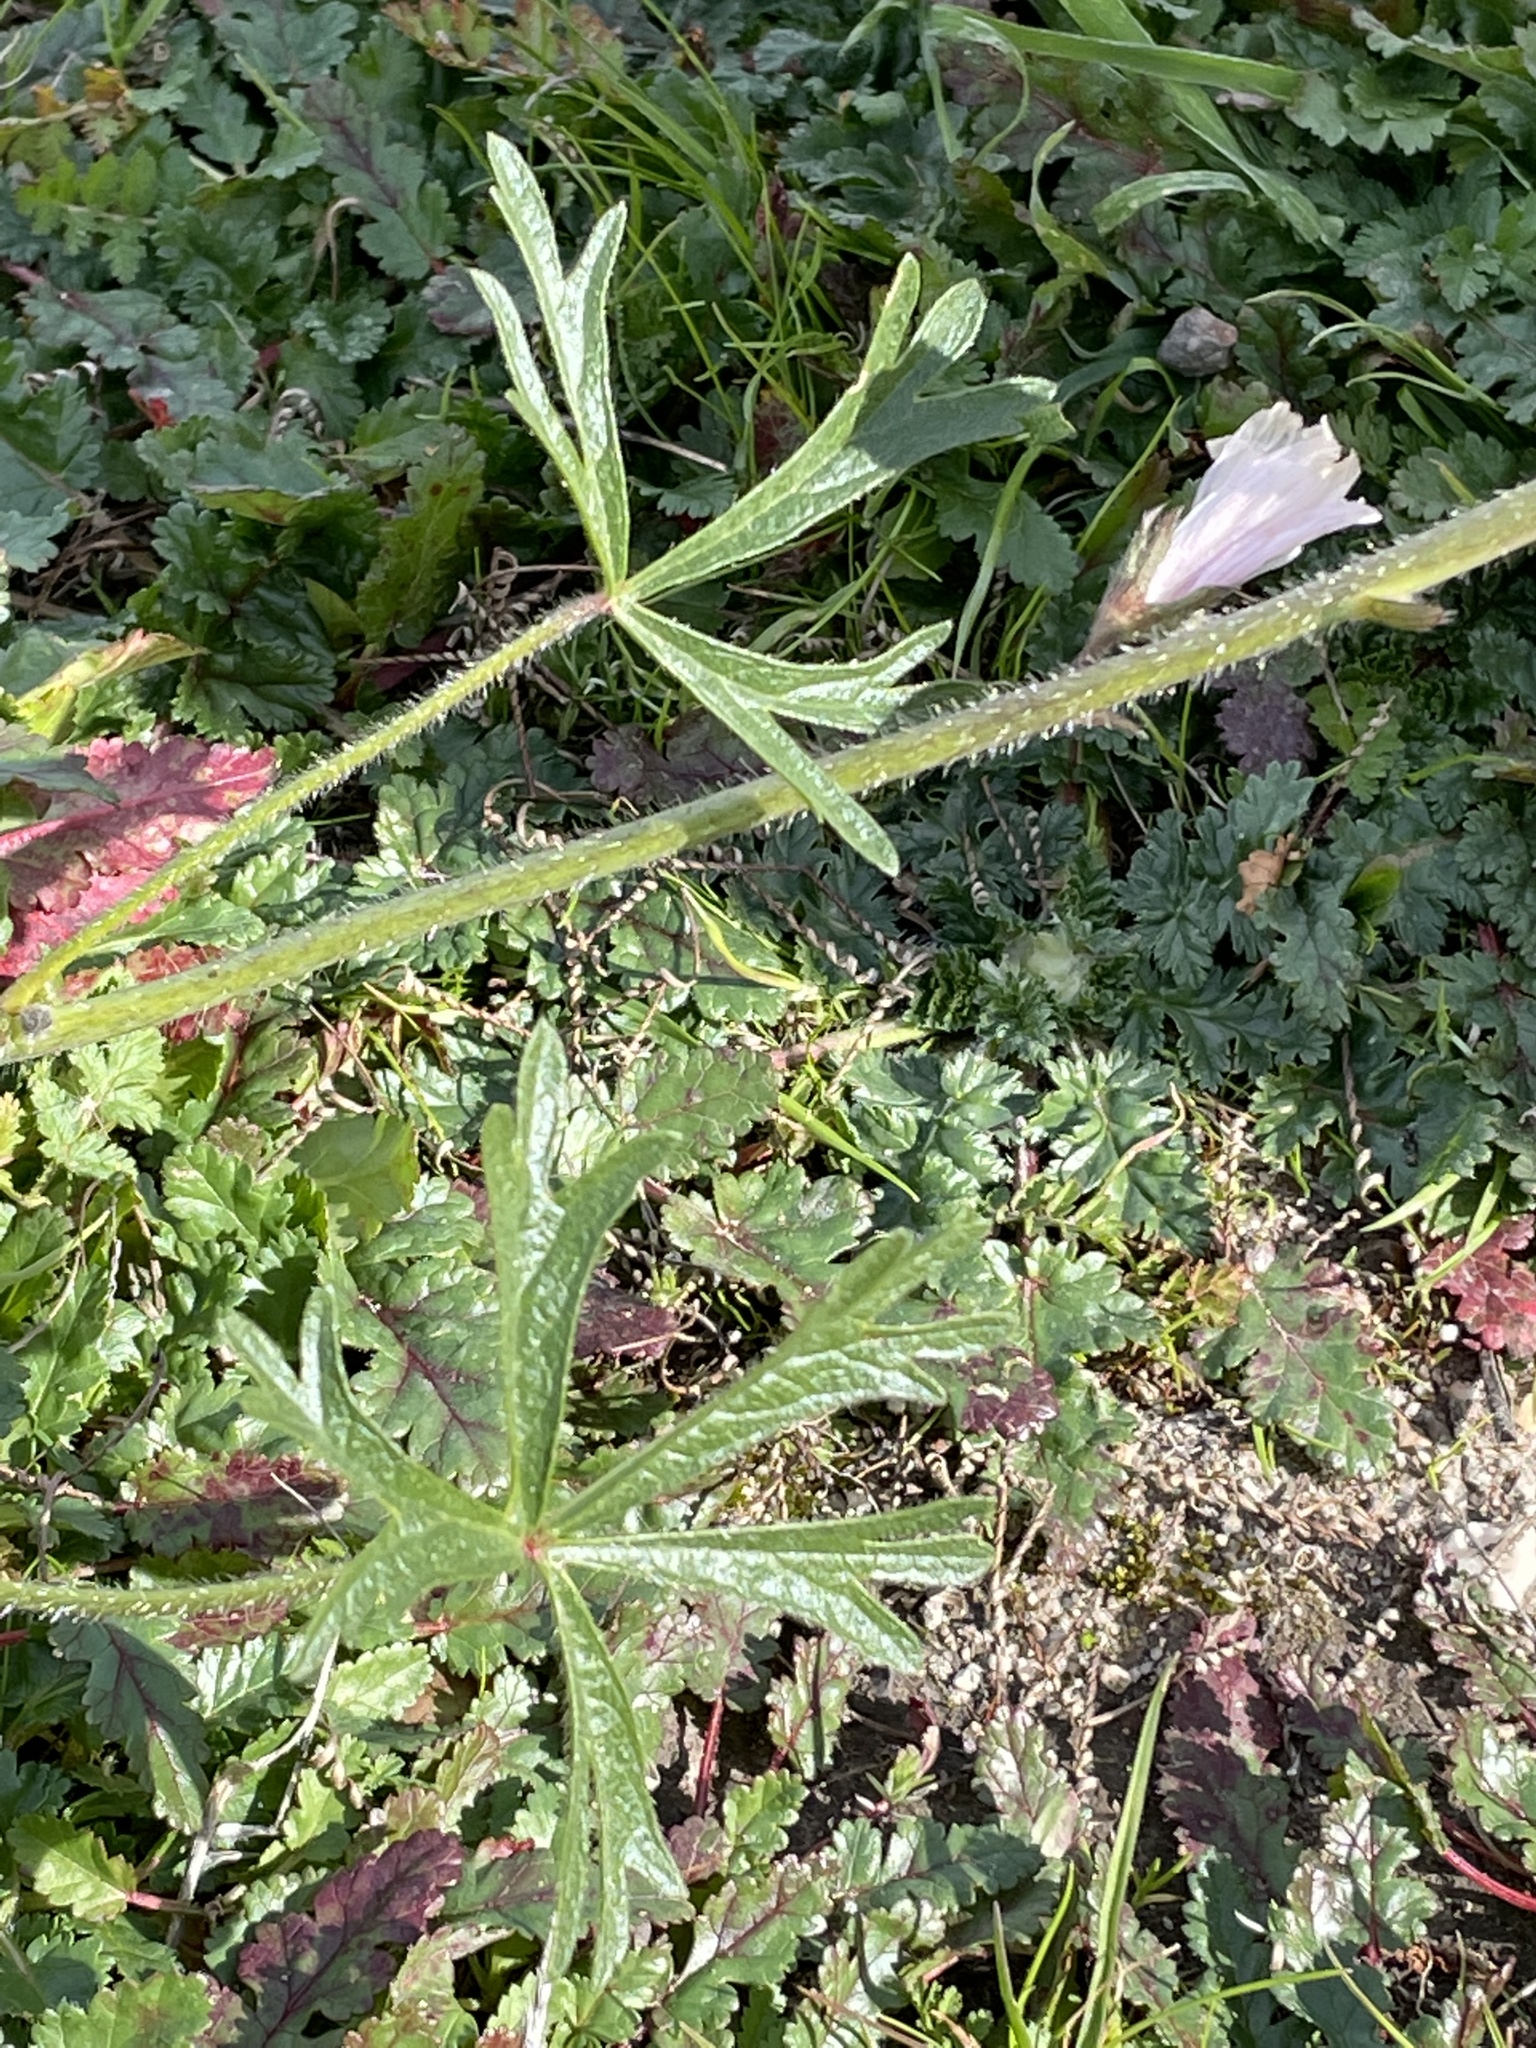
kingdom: Plantae
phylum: Tracheophyta
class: Magnoliopsida
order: Malvales
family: Malvaceae
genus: Sidalcea
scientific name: Sidalcea malviflora
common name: Greek mallow
